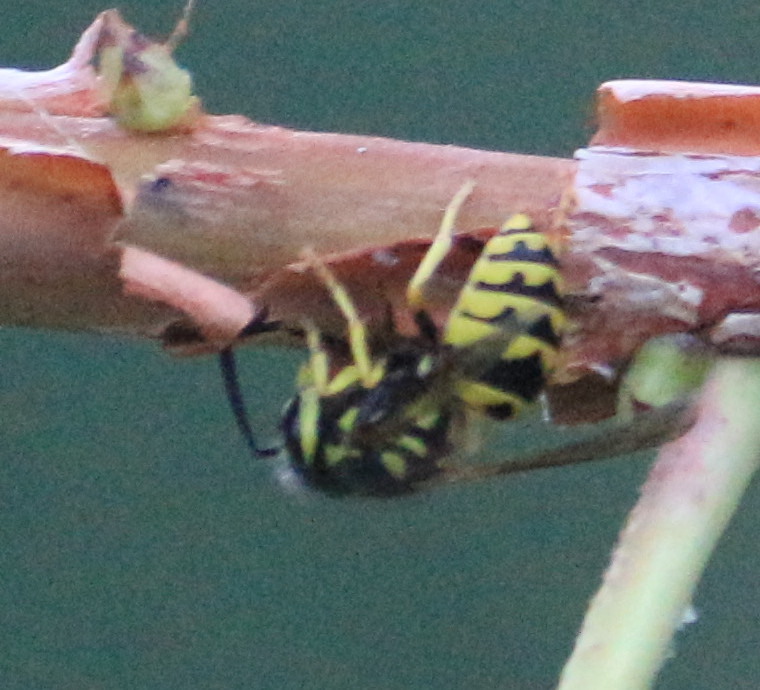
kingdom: Animalia
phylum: Arthropoda
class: Insecta
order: Hymenoptera
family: Vespidae
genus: Vespula
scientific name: Vespula pensylvanica
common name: Western yellowjacket
